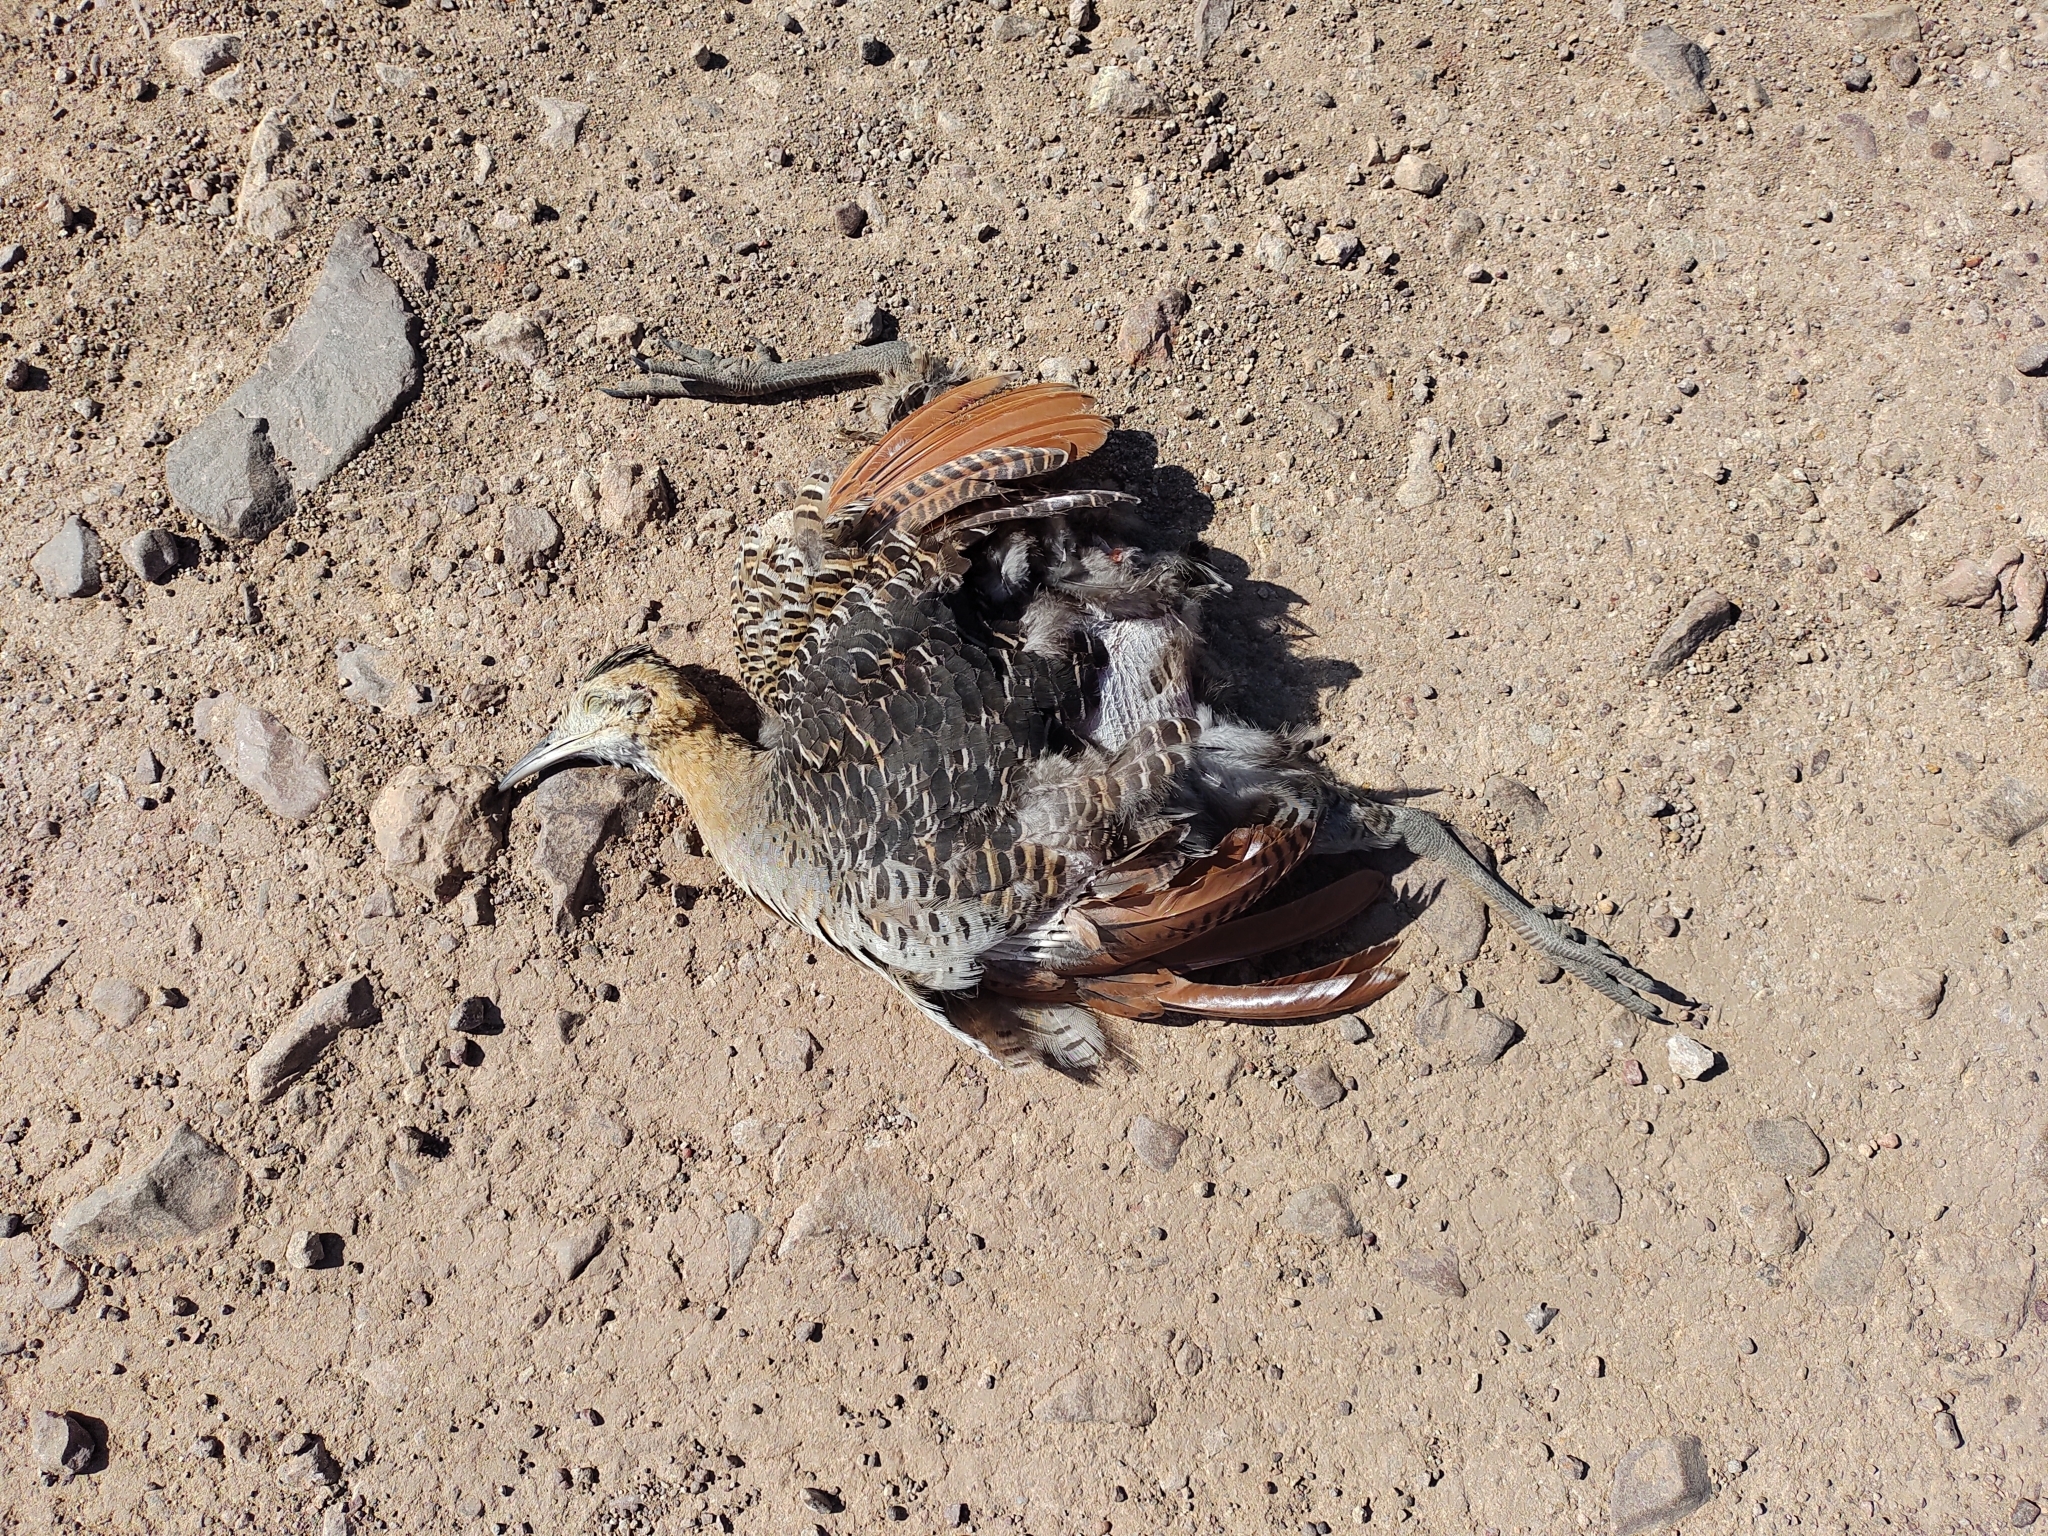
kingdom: Animalia
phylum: Chordata
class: Aves
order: Tinamiformes
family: Tinamidae
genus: Rhynchotus
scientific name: Rhynchotus rufescens
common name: Red-winged tinamou
